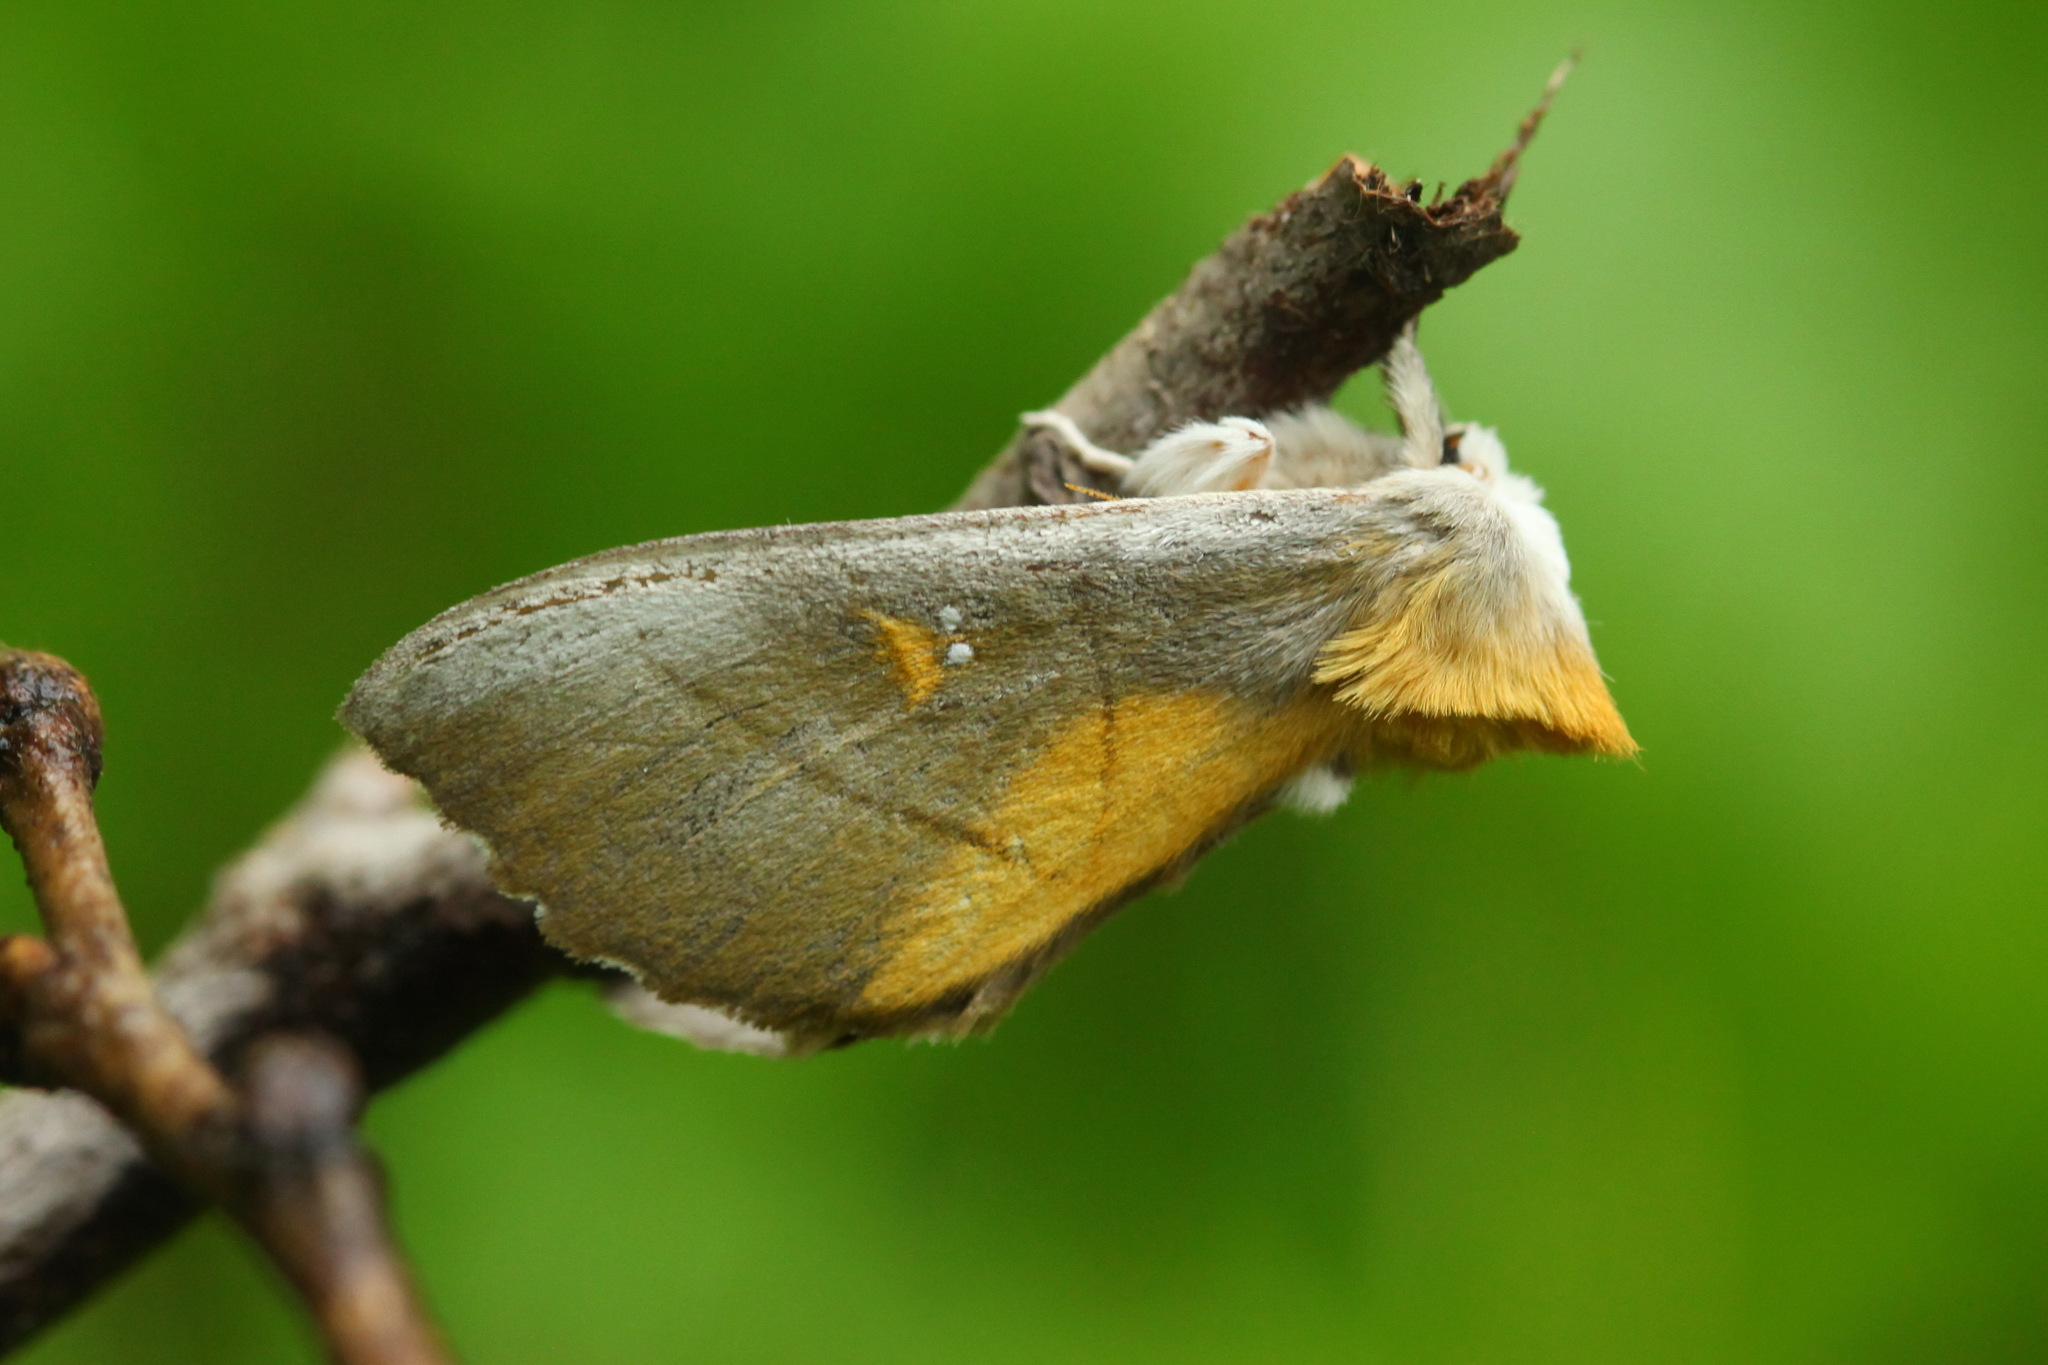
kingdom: Animalia
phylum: Arthropoda
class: Insecta
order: Lepidoptera
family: Notodontidae
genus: Euhampsonia
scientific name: Euhampsonia splendida
